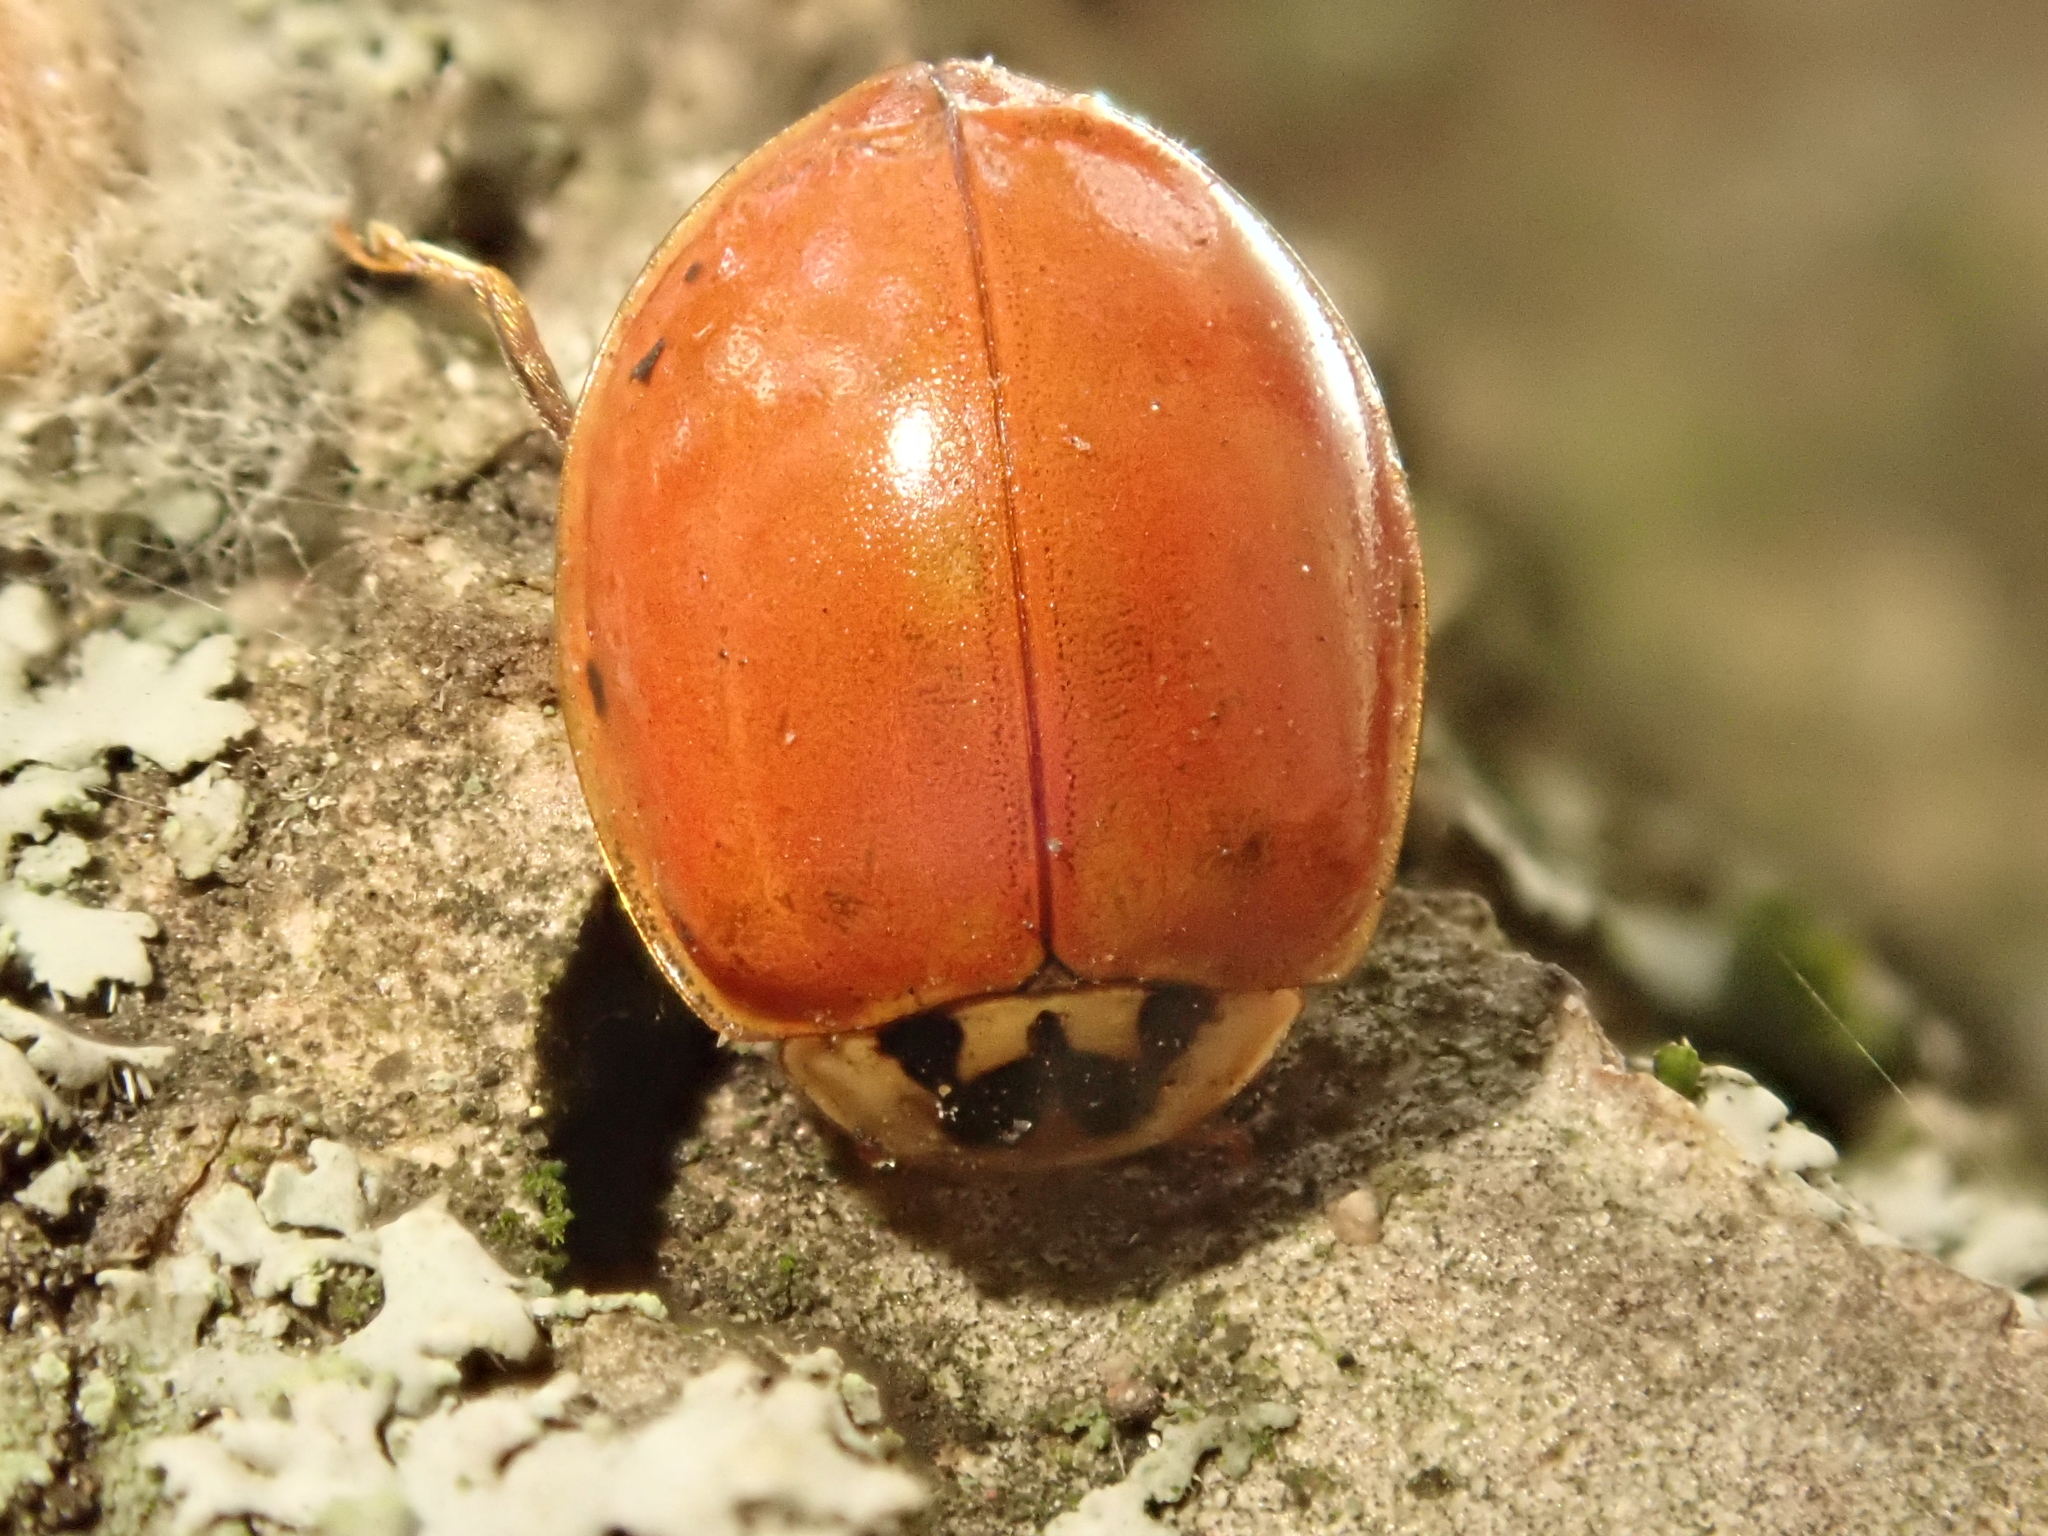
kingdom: Animalia
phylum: Arthropoda
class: Insecta
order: Coleoptera
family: Coccinellidae
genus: Harmonia
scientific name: Harmonia axyridis
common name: Harlequin ladybird
